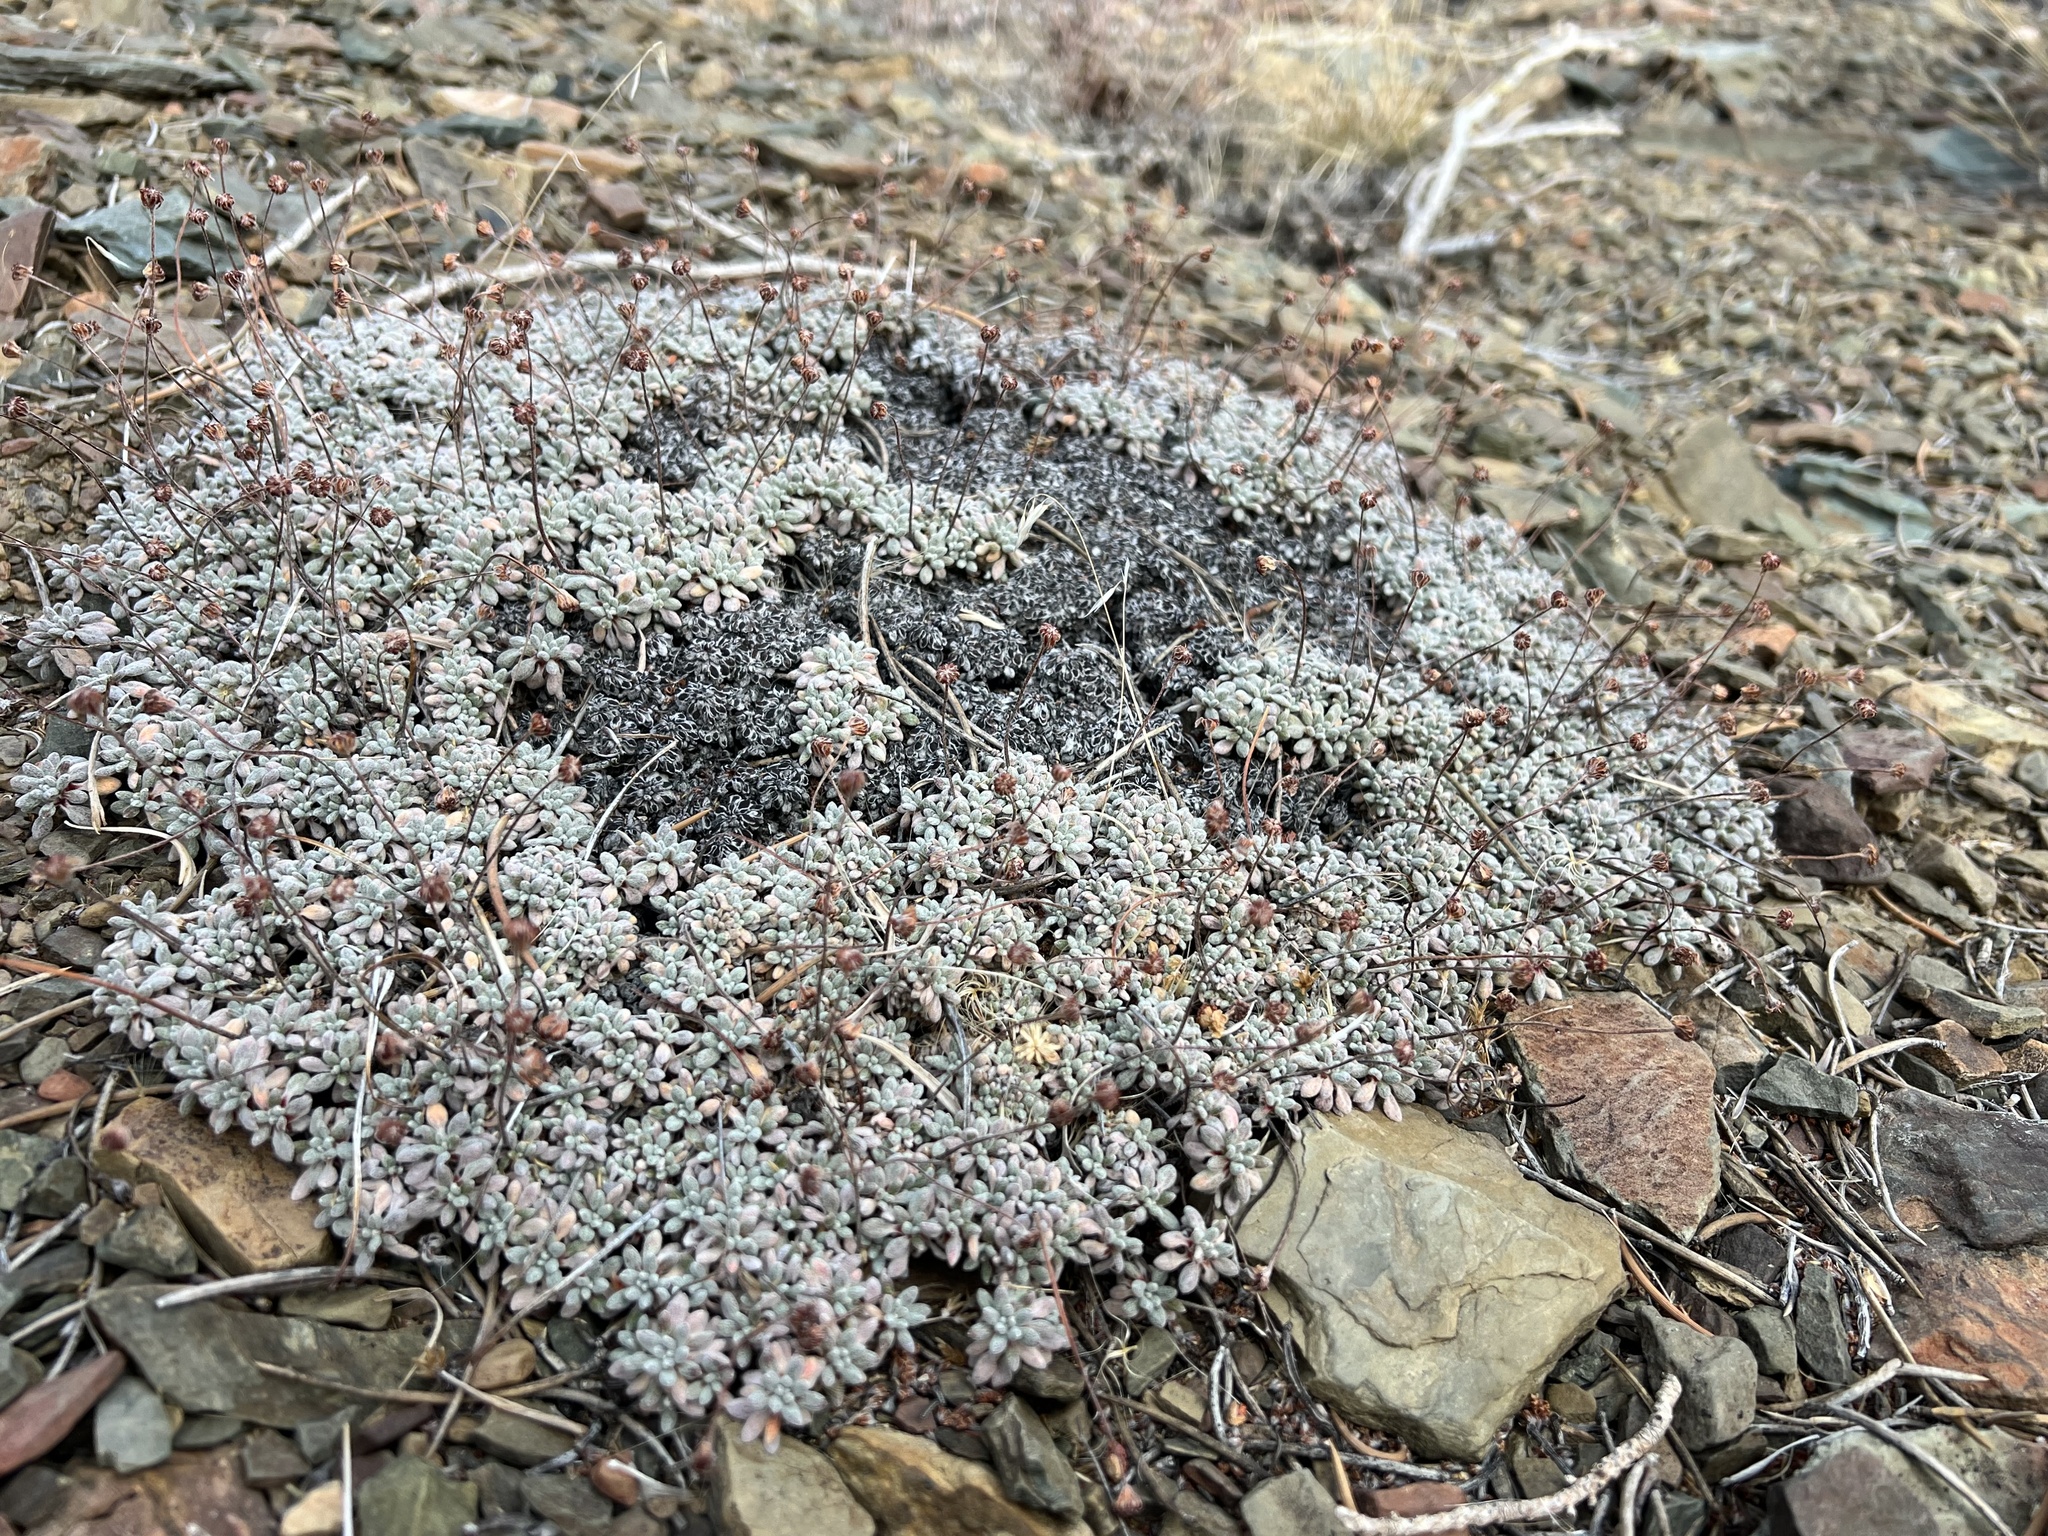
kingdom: Plantae
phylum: Tracheophyta
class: Magnoliopsida
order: Caryophyllales
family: Polygonaceae
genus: Eriogonum
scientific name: Eriogonum caespitosum
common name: Matted wild buckwheat
